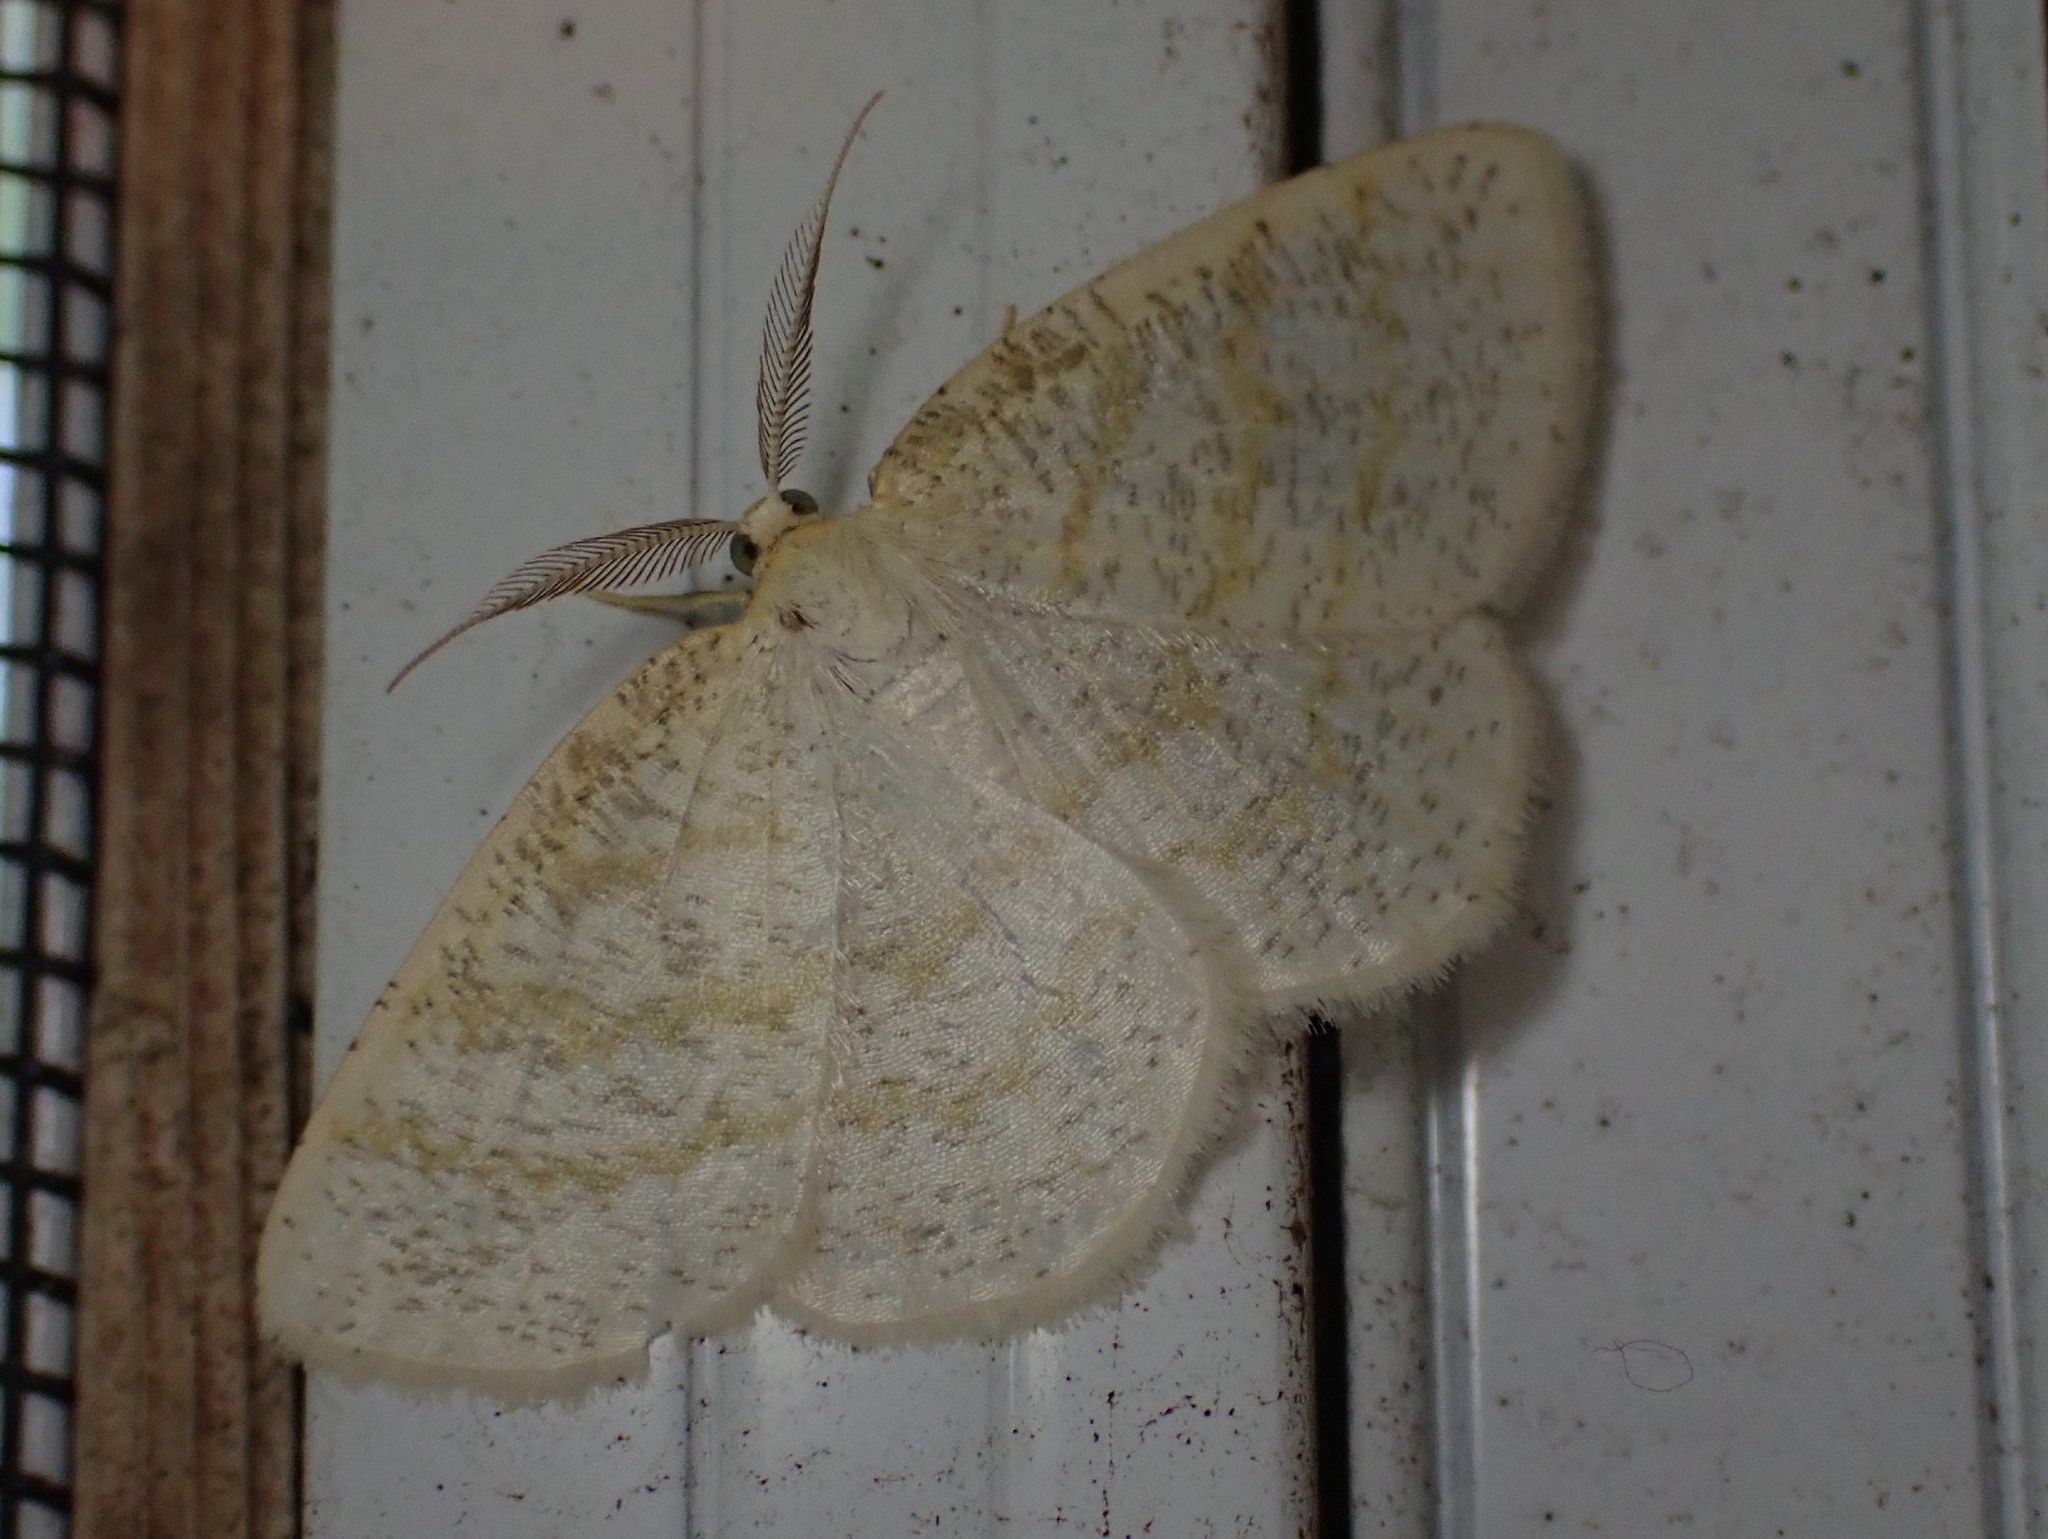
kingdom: Animalia
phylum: Arthropoda
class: Insecta
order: Lepidoptera
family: Geometridae
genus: Cabera
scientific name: Cabera erythemaria
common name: Yellow-dusted cream moth
